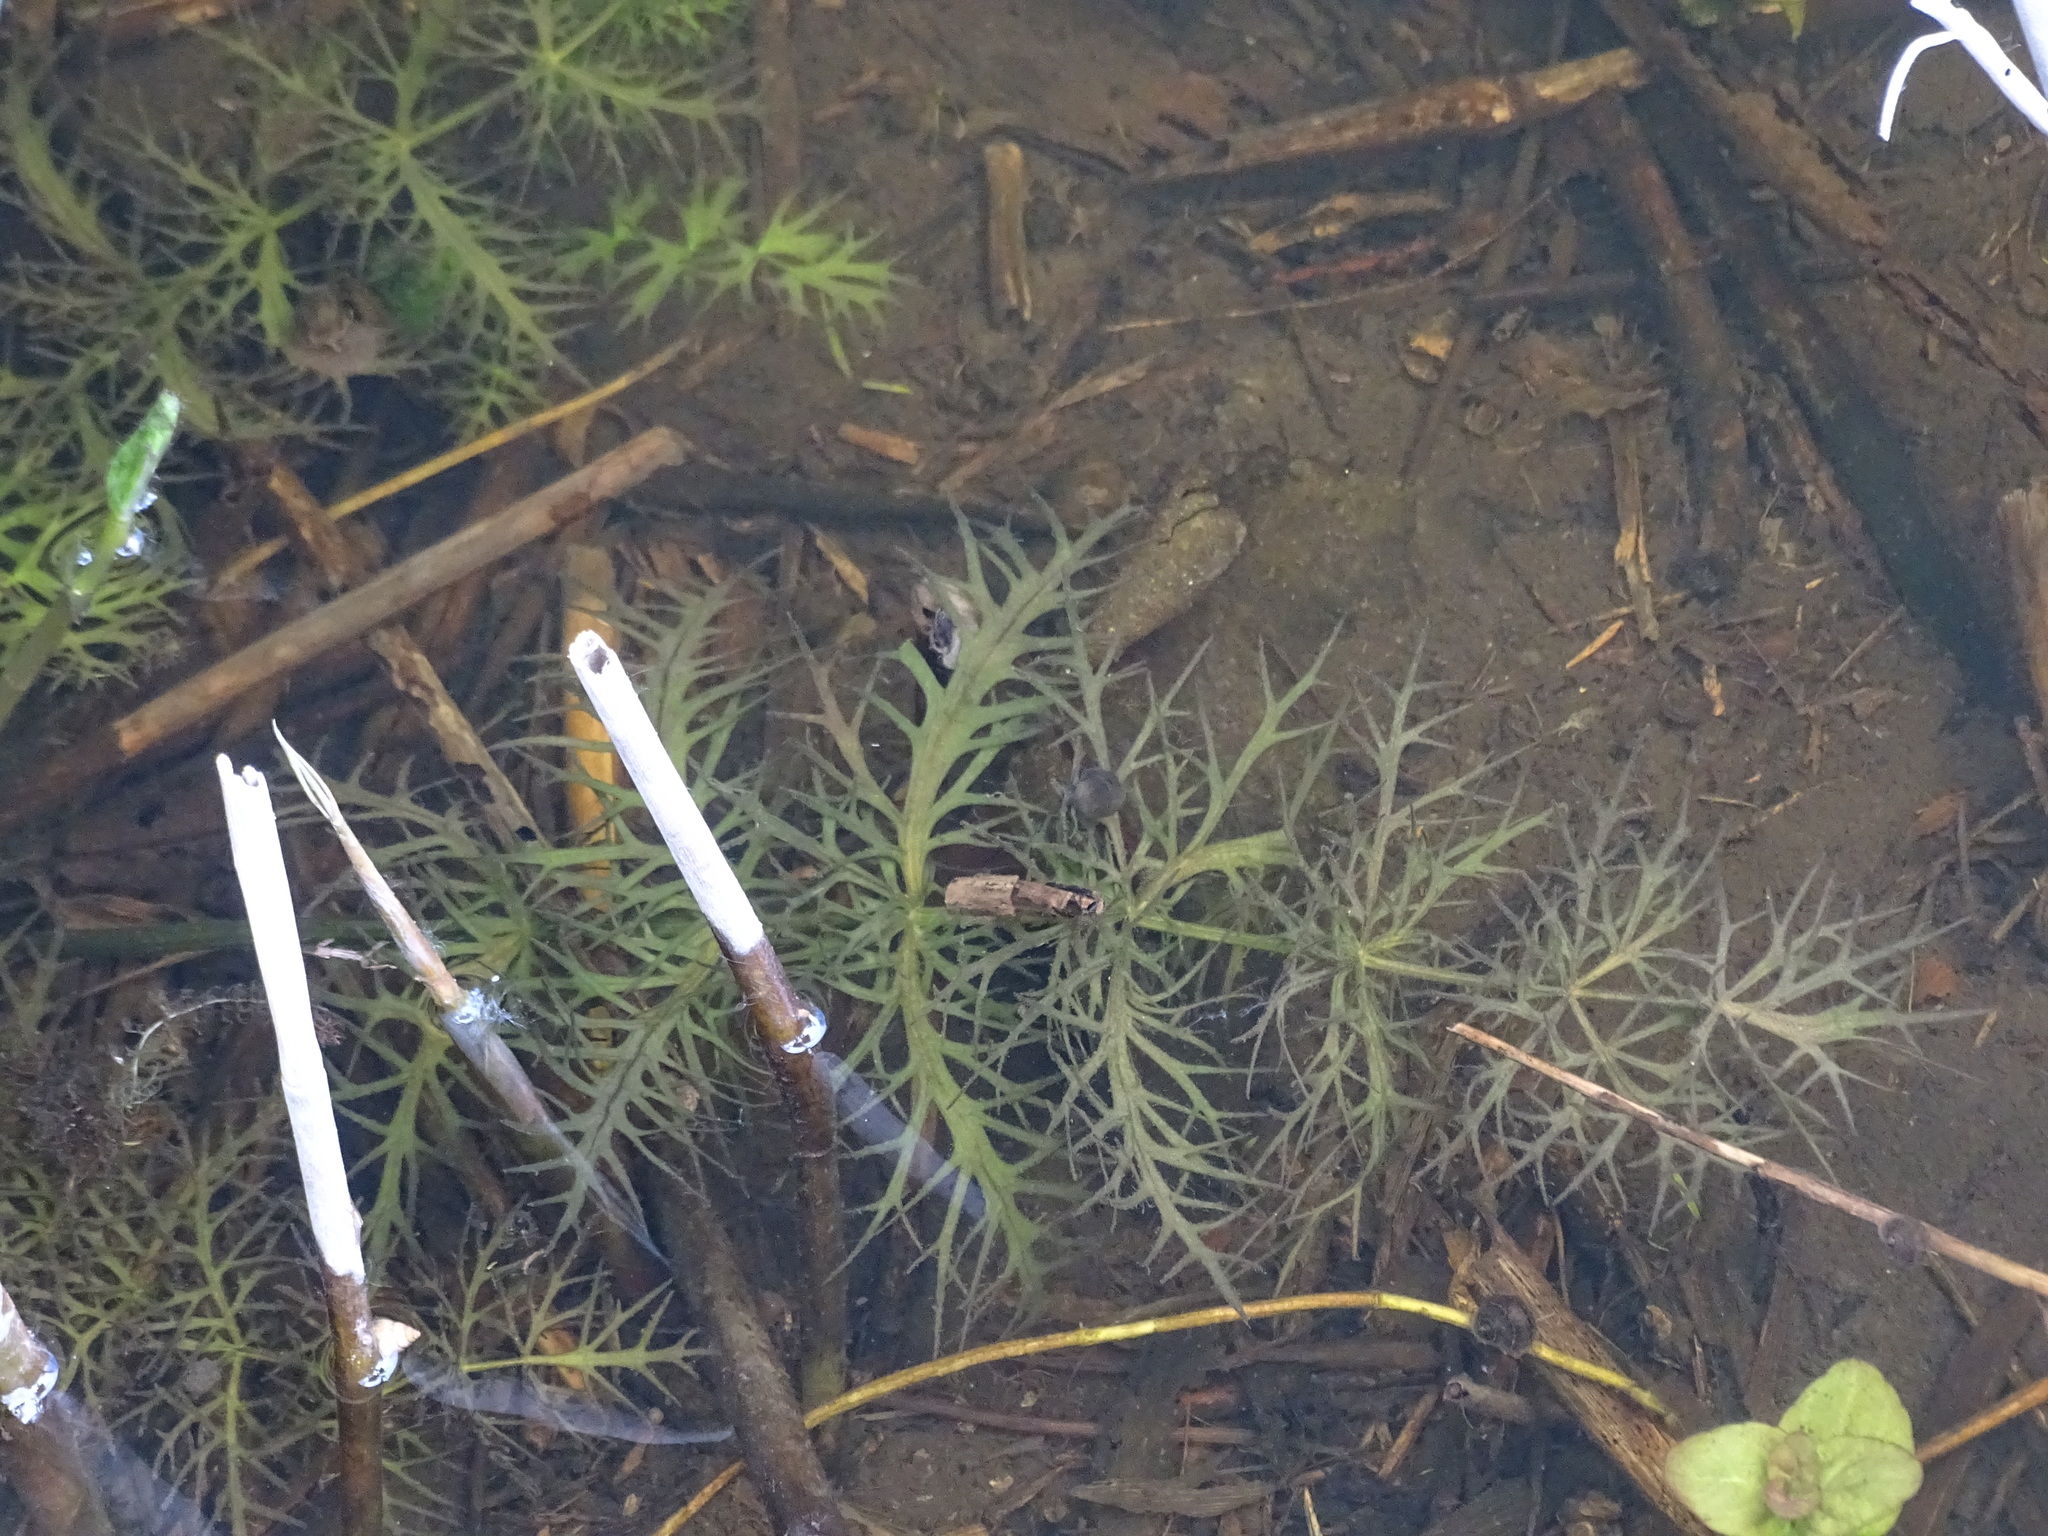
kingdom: Plantae
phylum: Tracheophyta
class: Magnoliopsida
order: Apiales
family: Apiaceae
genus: Sium
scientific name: Sium latifolium
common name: Greater water-parsnip
